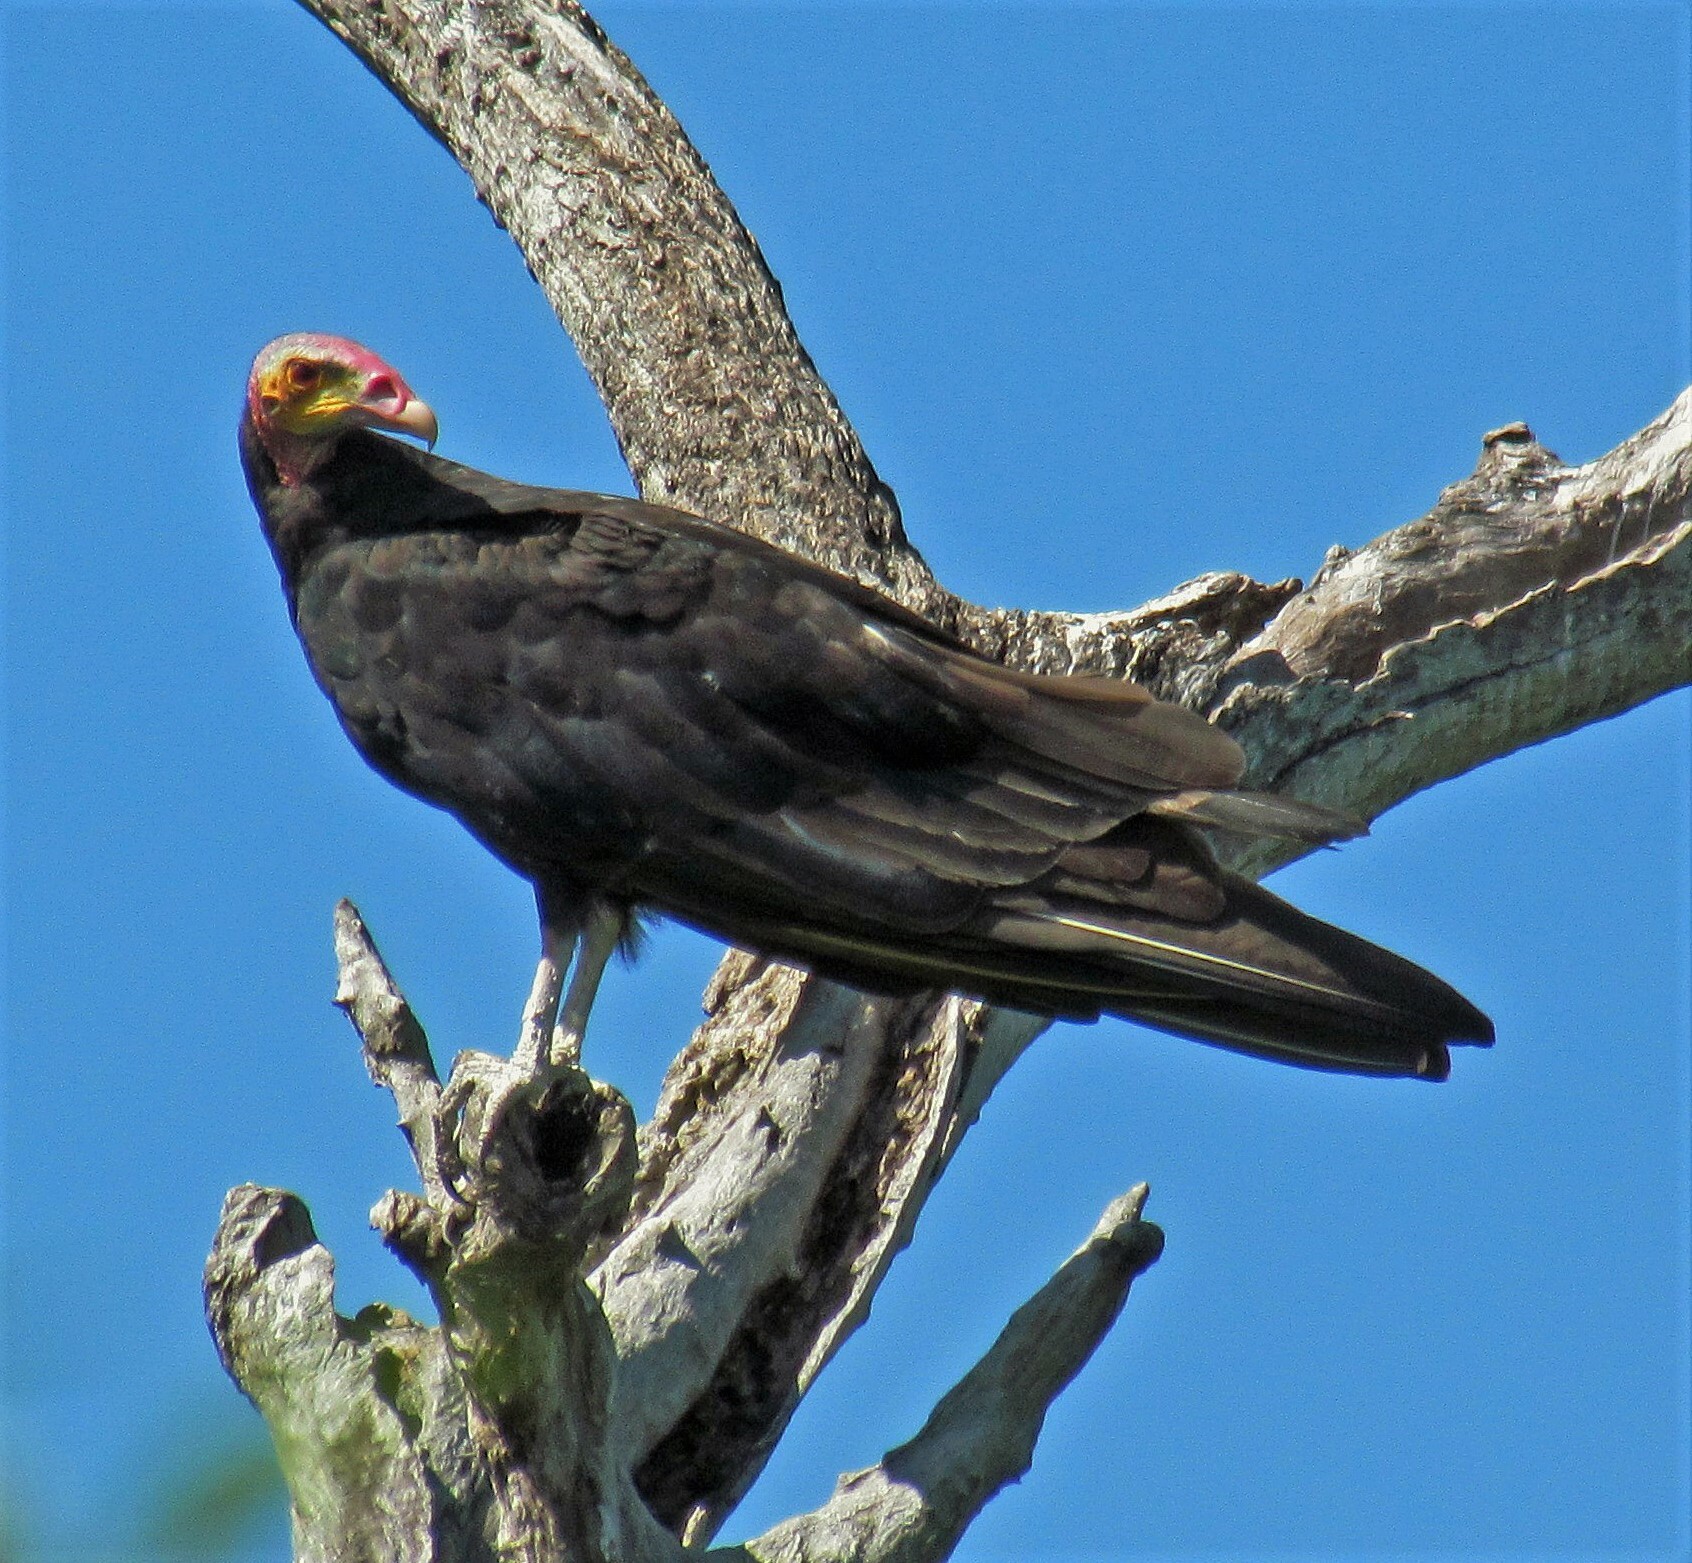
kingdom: Animalia
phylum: Chordata
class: Aves
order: Accipitriformes
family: Cathartidae
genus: Cathartes
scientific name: Cathartes burrovianus
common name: Lesser yellow-headed vulture
